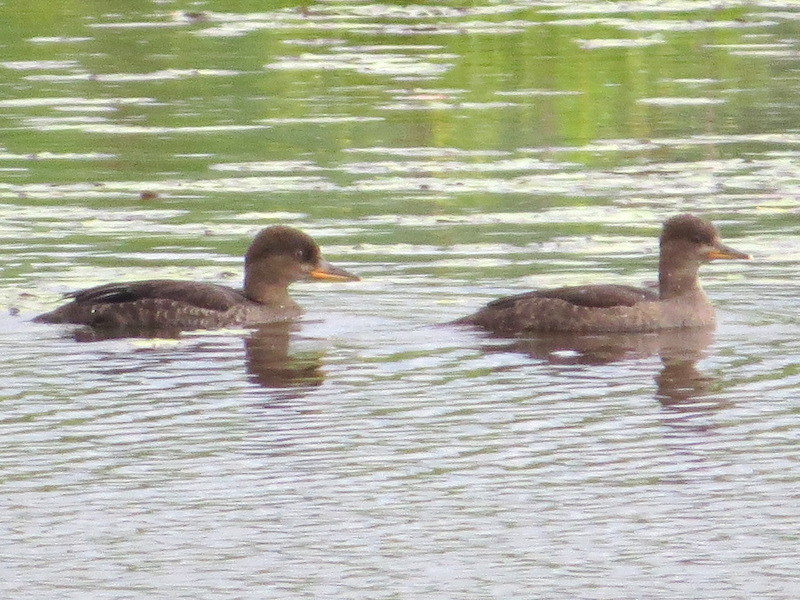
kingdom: Animalia
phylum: Chordata
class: Aves
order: Anseriformes
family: Anatidae
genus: Lophodytes
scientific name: Lophodytes cucullatus
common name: Hooded merganser
